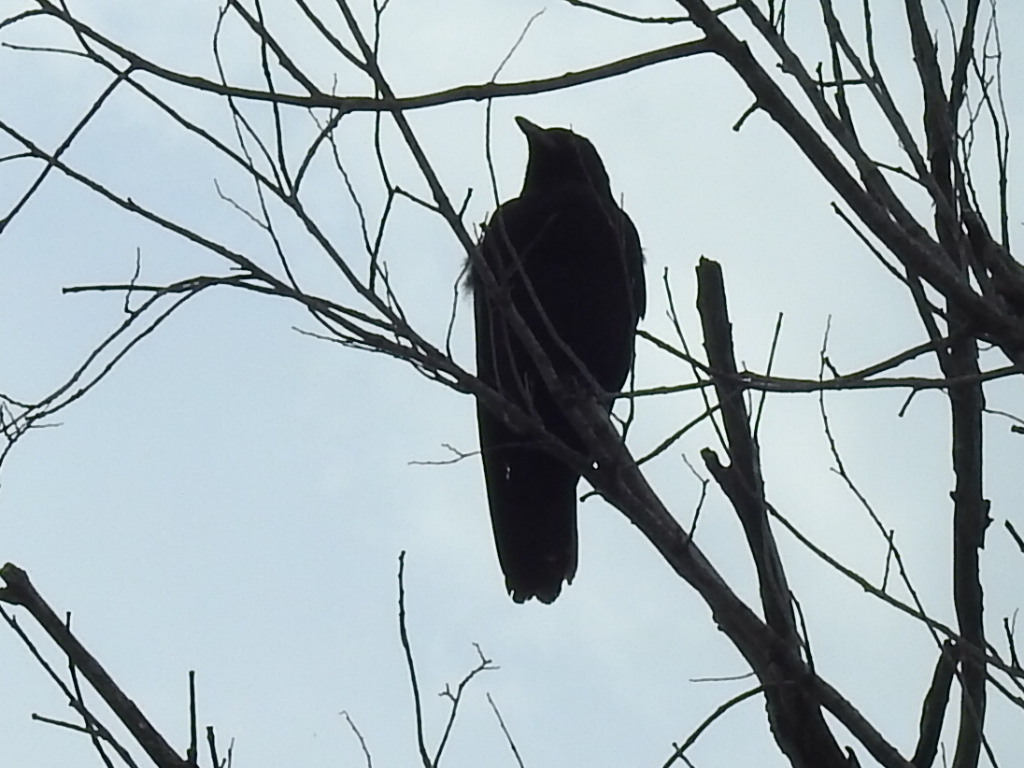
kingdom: Animalia
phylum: Chordata
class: Aves
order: Passeriformes
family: Corvidae
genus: Corvus
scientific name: Corvus brachyrhynchos
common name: American crow
